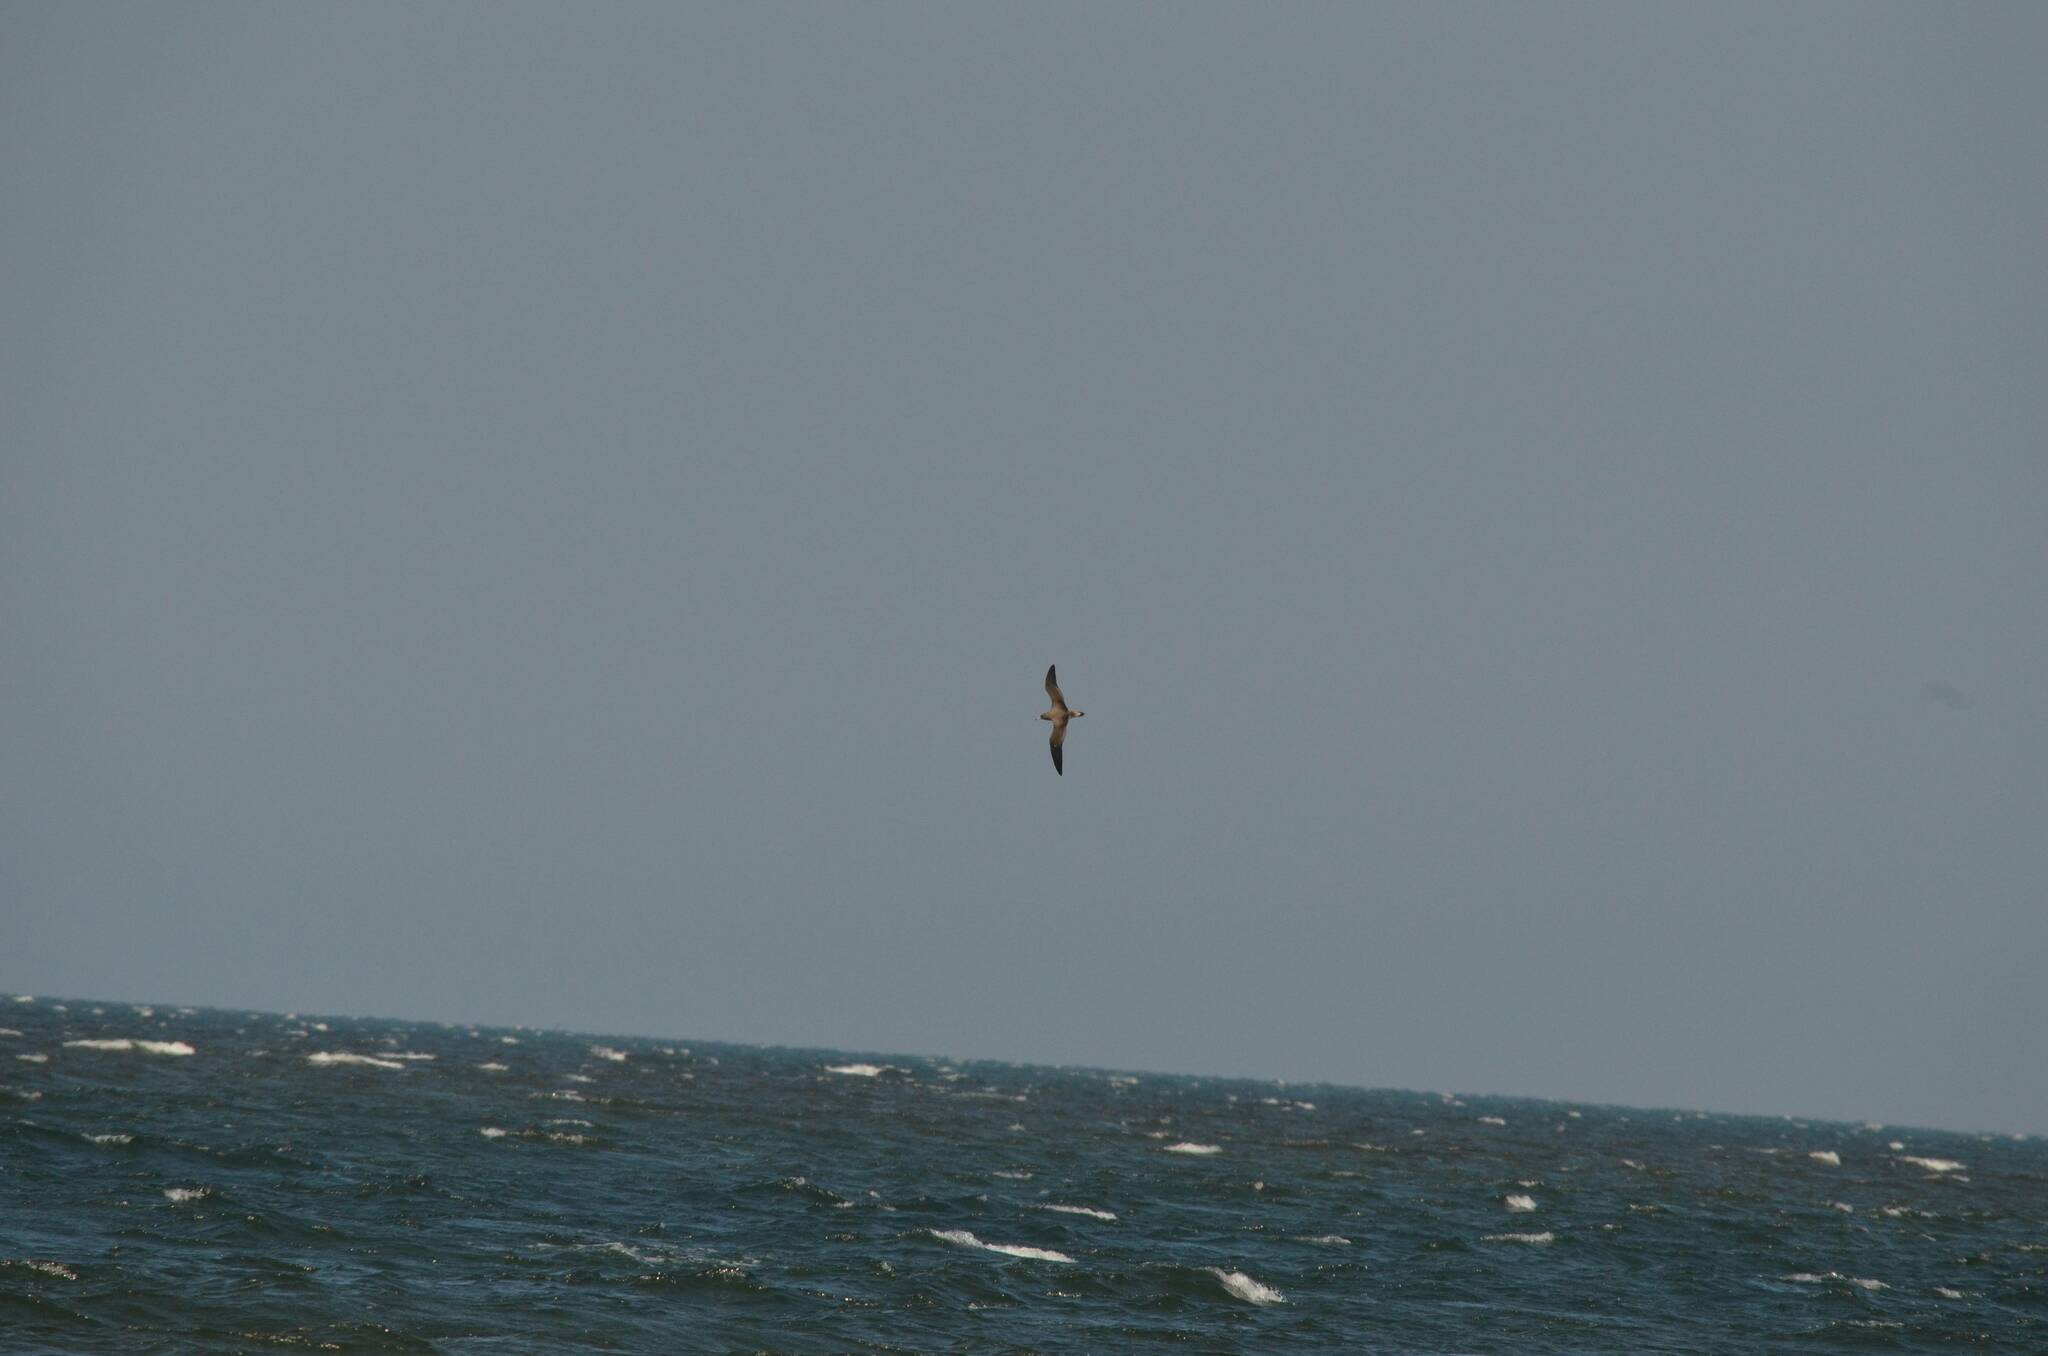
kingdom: Animalia
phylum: Chordata
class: Aves
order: Procellariiformes
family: Procellariidae
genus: Calonectris
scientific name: Calonectris diomedea
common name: Cory's shearwater
